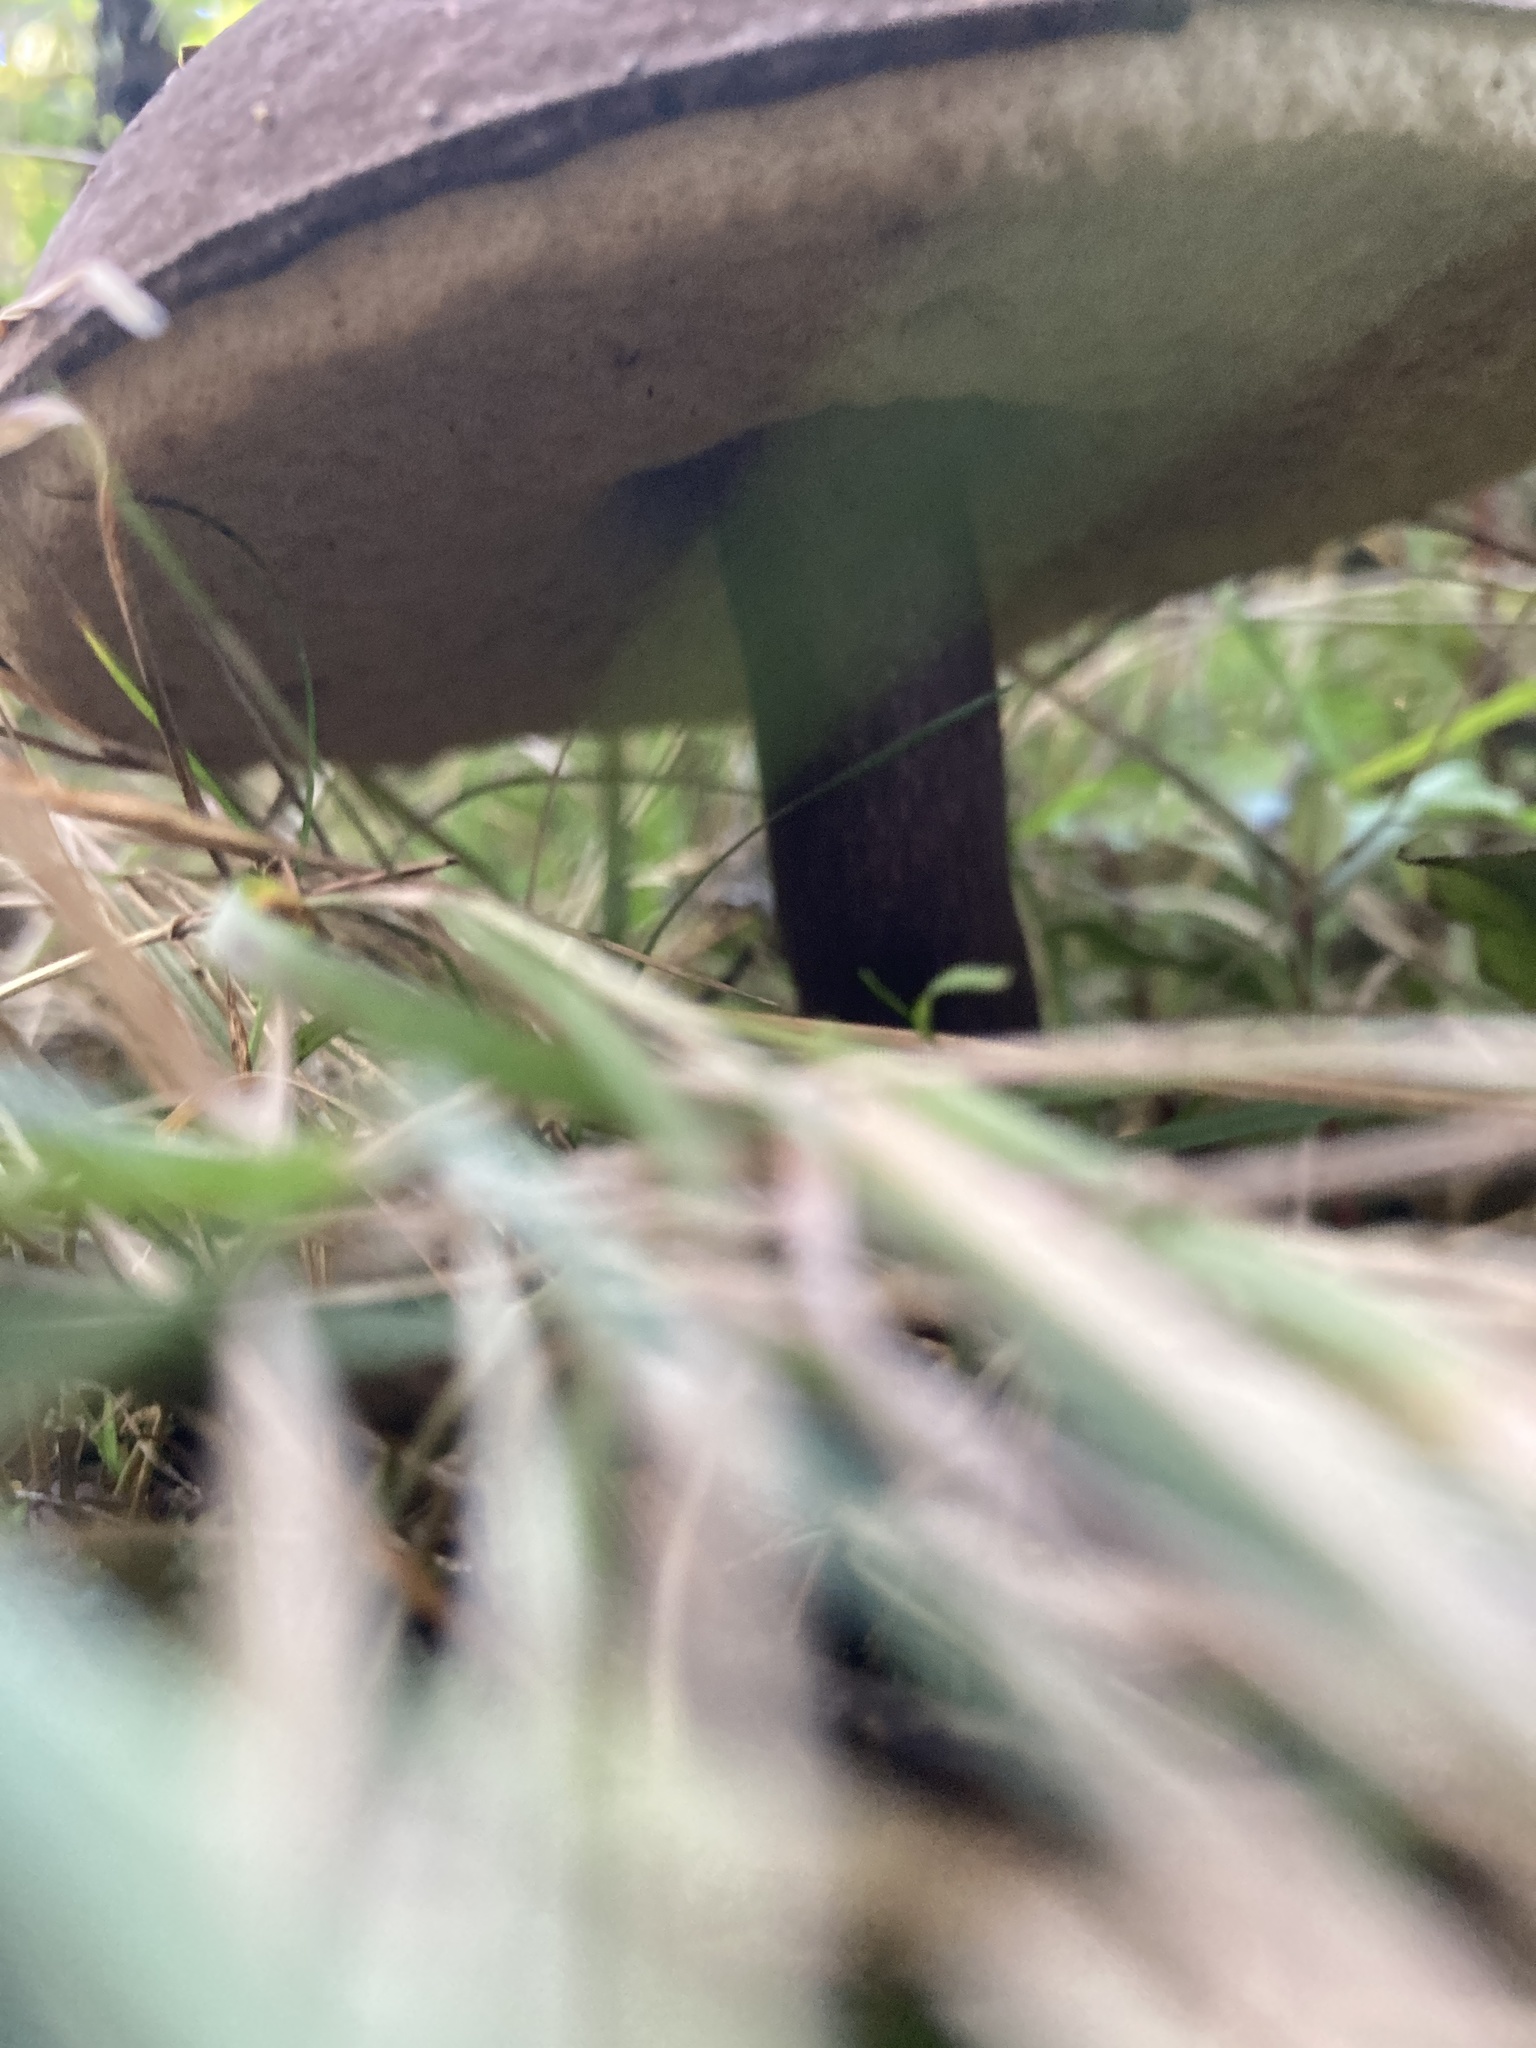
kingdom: Fungi
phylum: Basidiomycota
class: Agaricomycetes
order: Boletales
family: Boletaceae
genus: Porphyrellus
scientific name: Porphyrellus formosus
